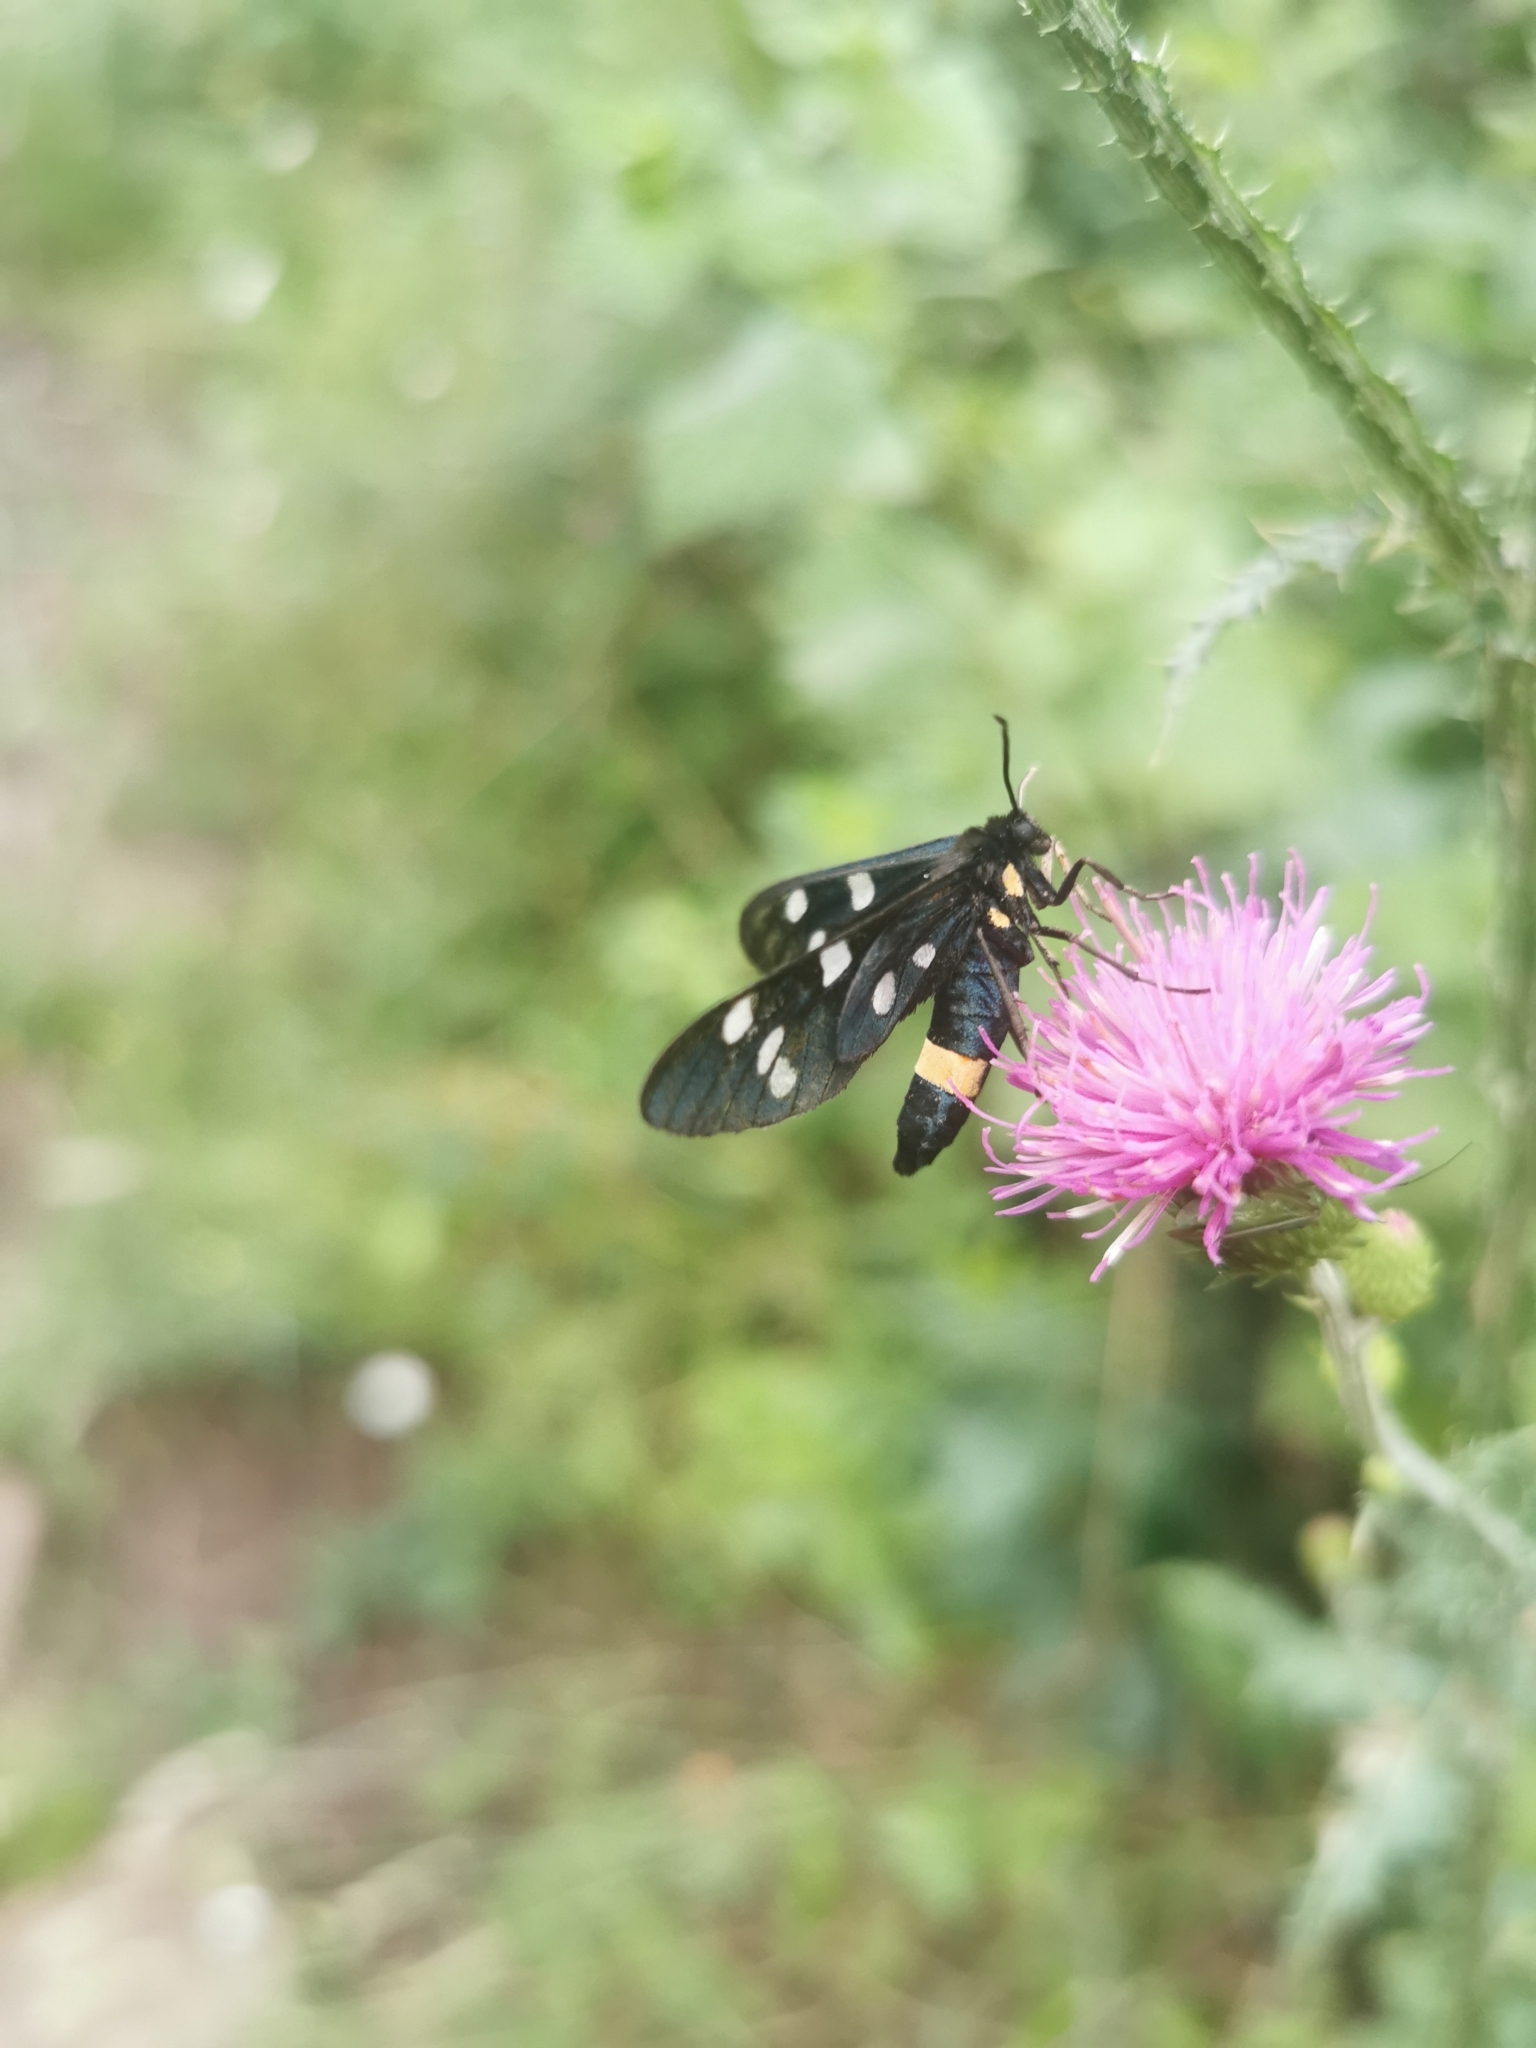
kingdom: Animalia
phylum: Arthropoda
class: Insecta
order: Lepidoptera
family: Erebidae
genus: Amata
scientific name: Amata phegea
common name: Nine-spotted
